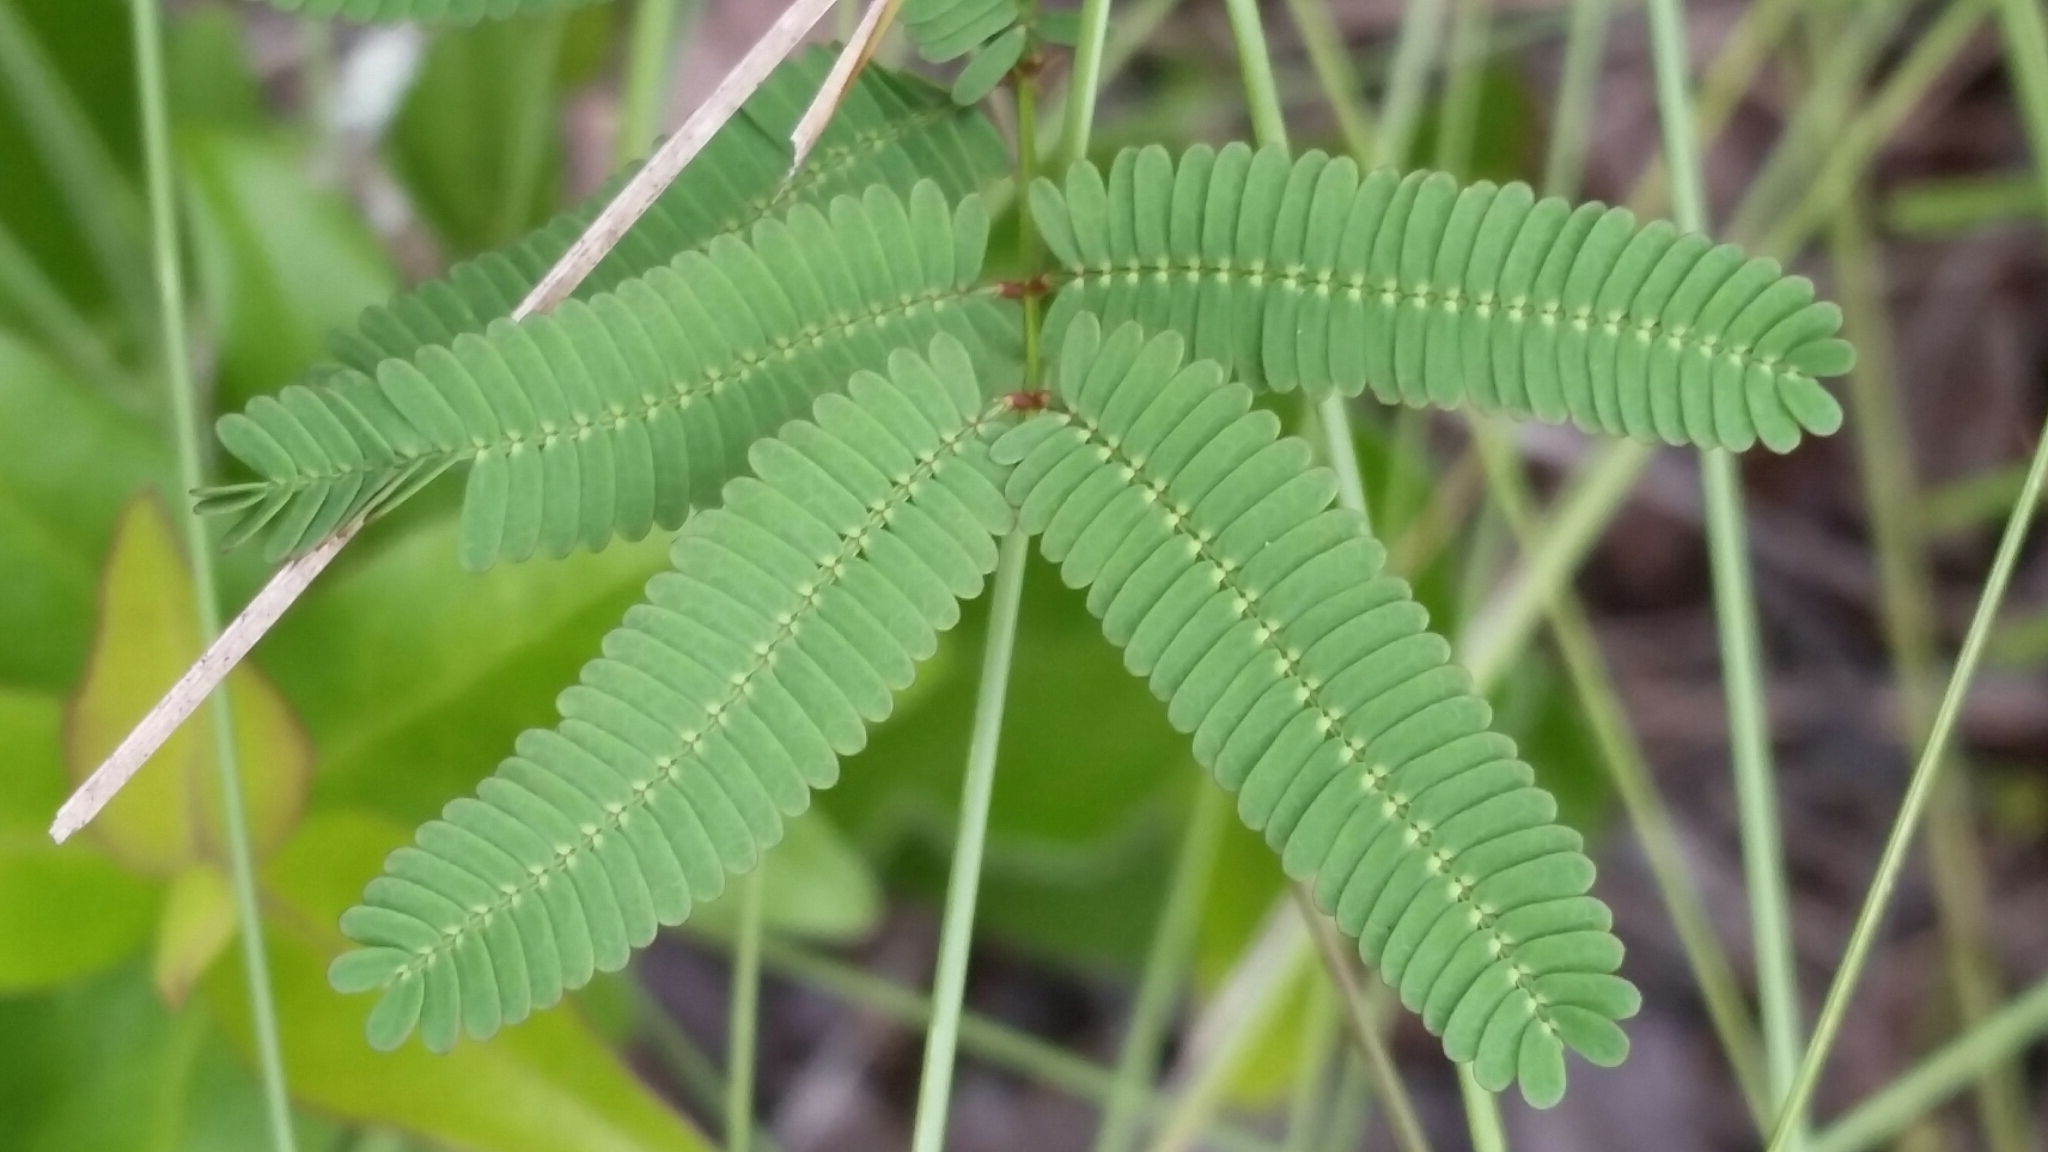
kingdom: Plantae
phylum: Tracheophyta
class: Magnoliopsida
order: Fabales
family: Fabaceae
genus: Mimosa
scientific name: Mimosa floridana
